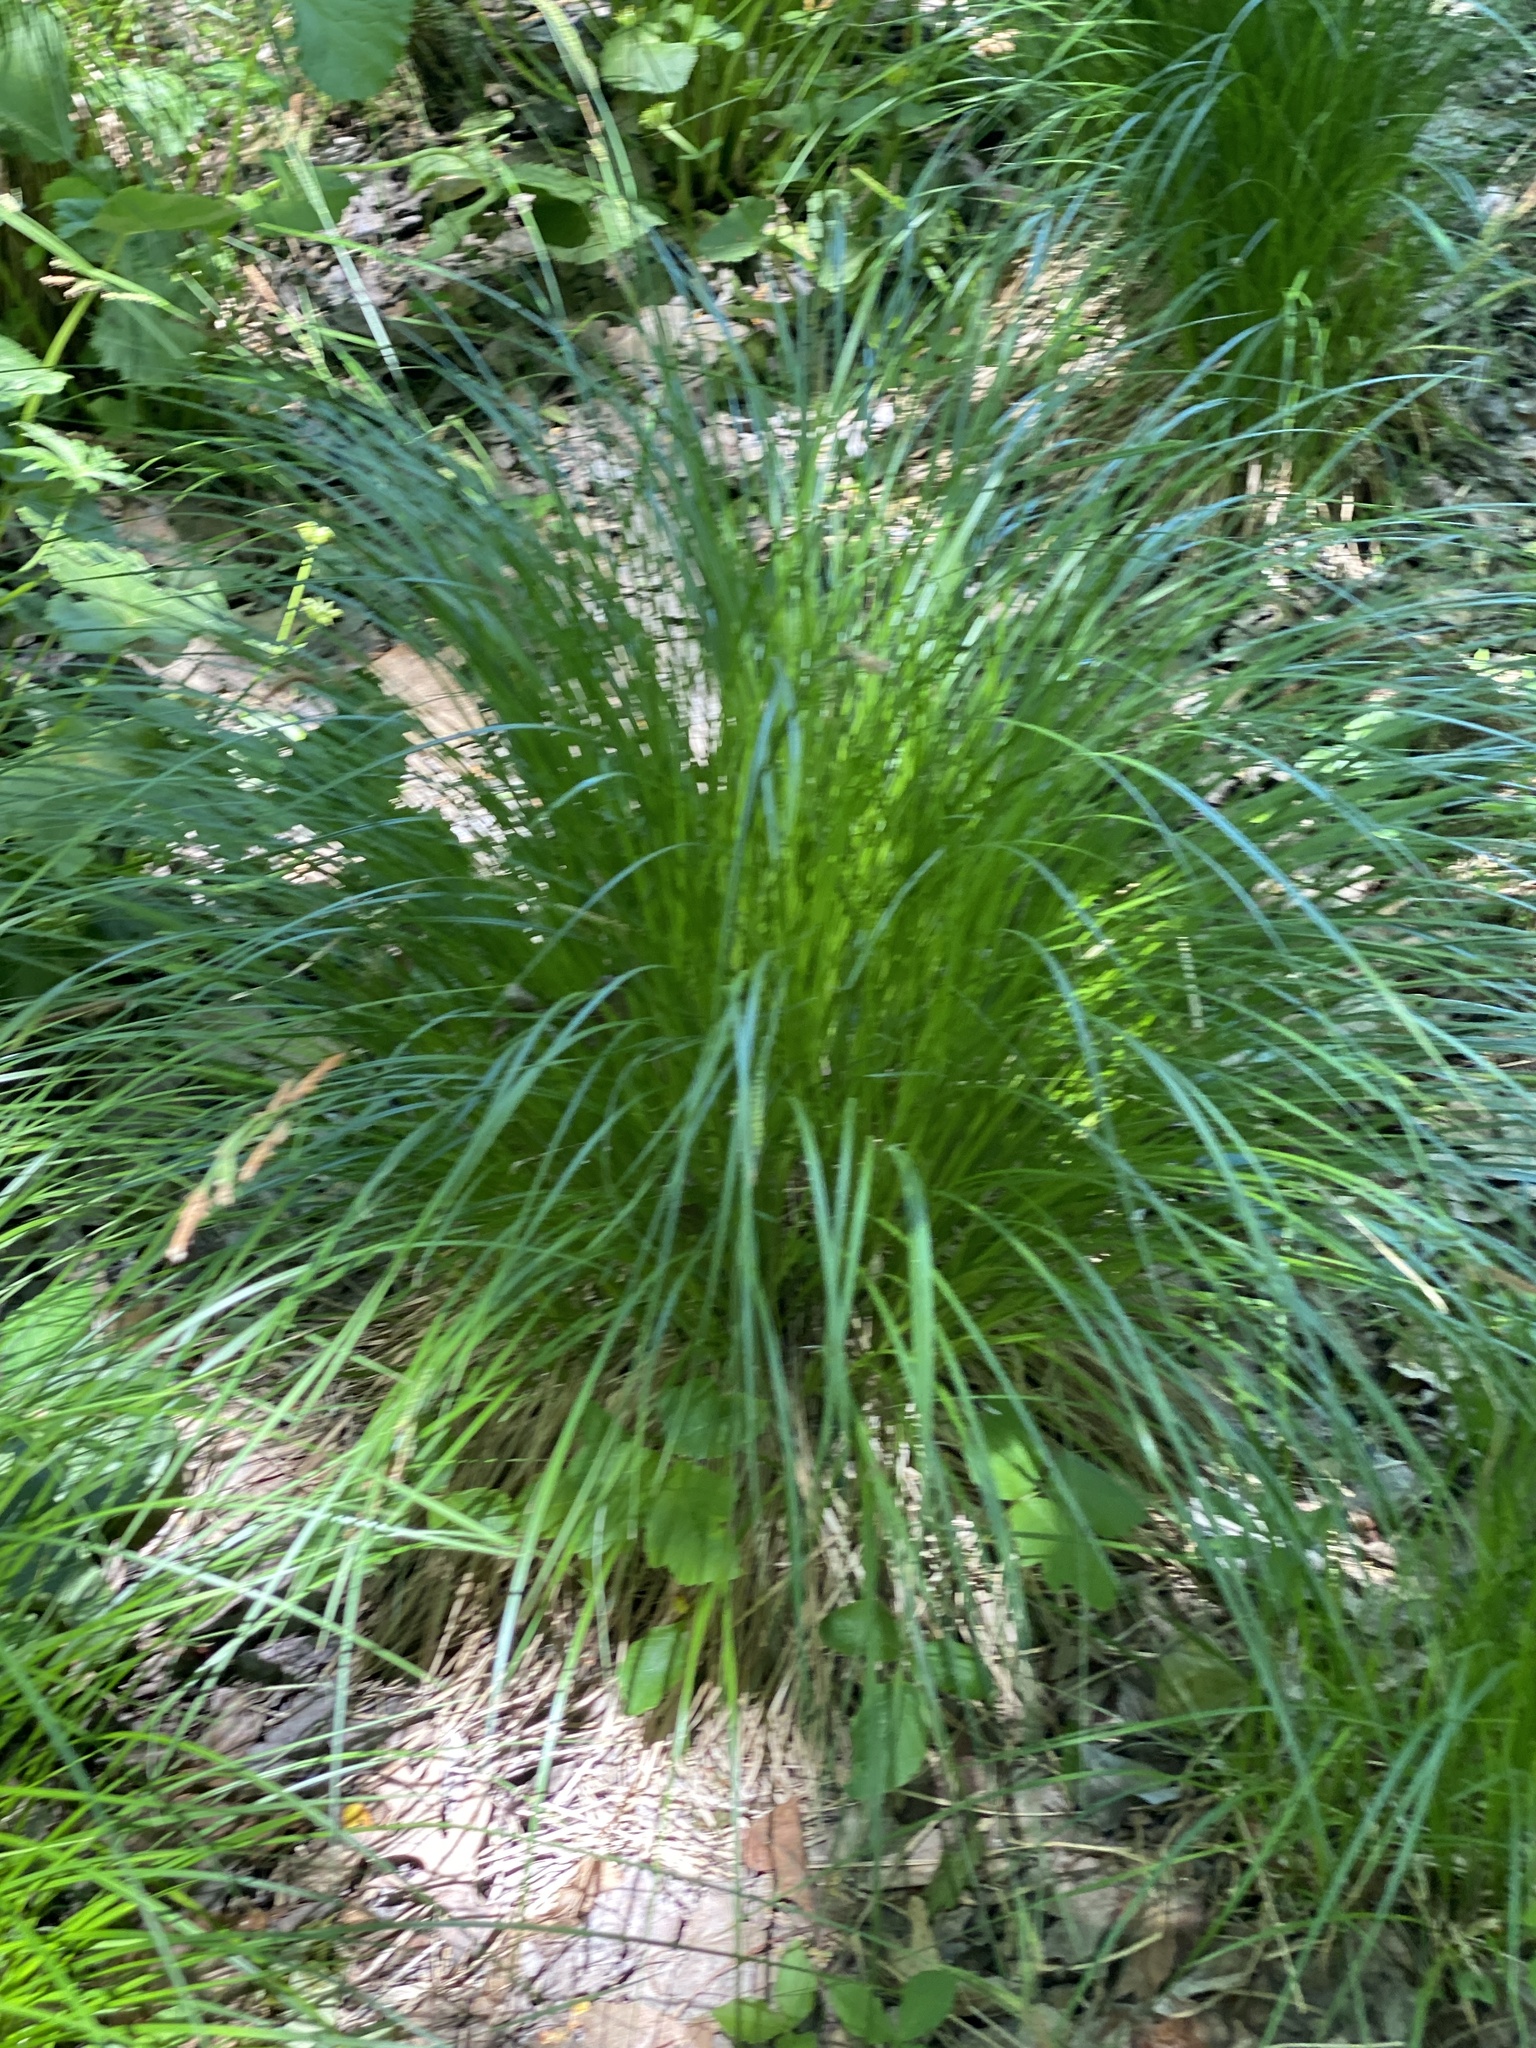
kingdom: Plantae
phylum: Tracheophyta
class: Liliopsida
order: Poales
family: Cyperaceae
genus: Carex
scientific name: Carex stricta
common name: Hummock sedge
